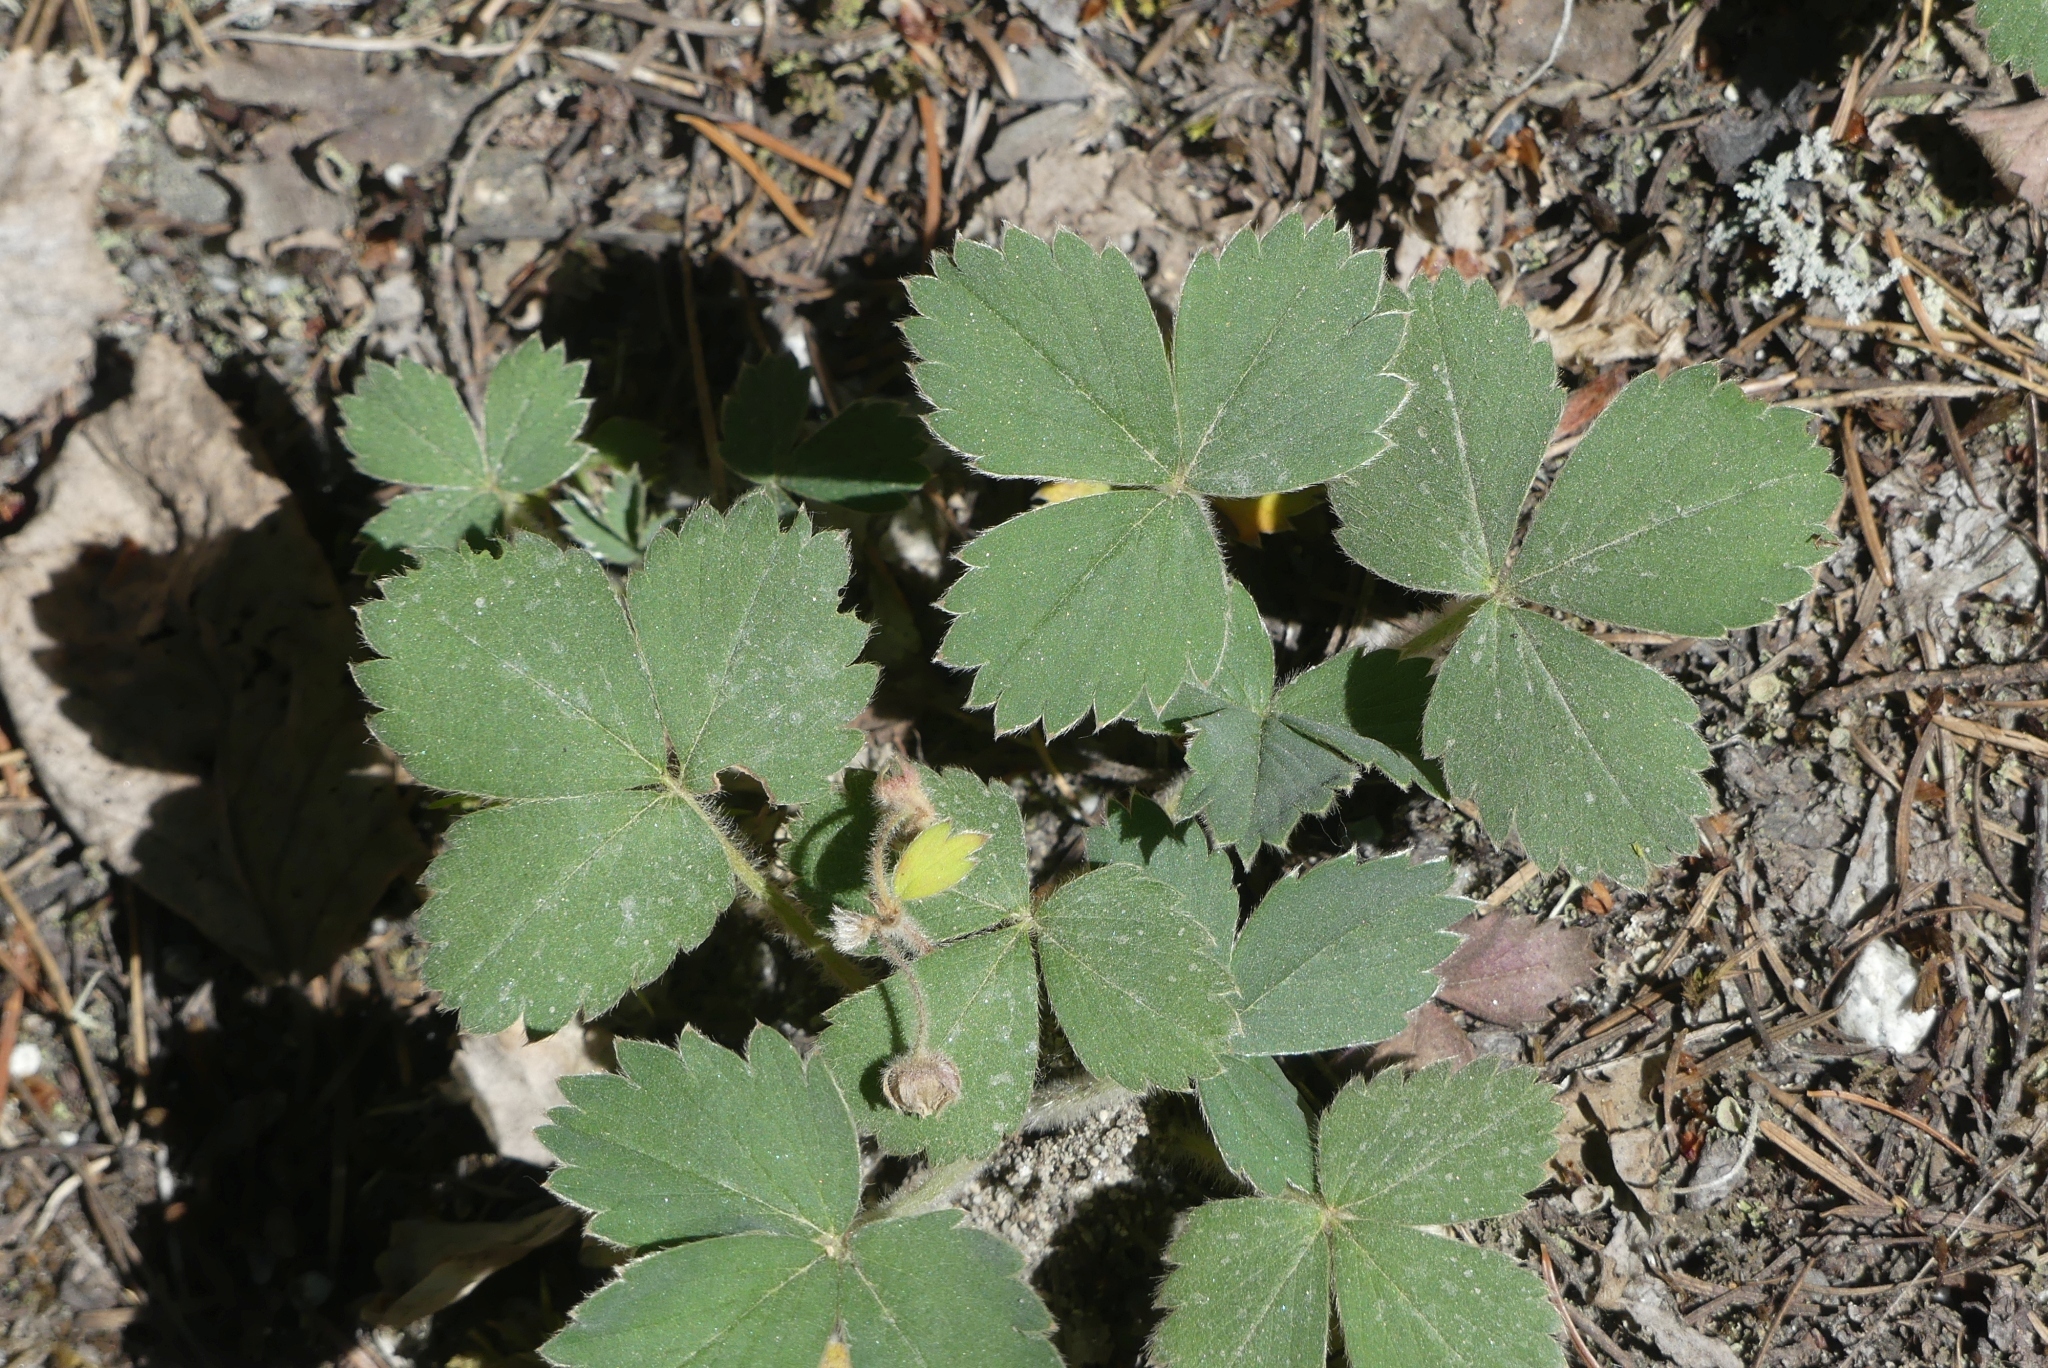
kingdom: Plantae
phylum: Tracheophyta
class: Magnoliopsida
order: Rosales
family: Rosaceae
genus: Fragaria
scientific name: Fragaria virginiana
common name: Thickleaved wild strawberry
